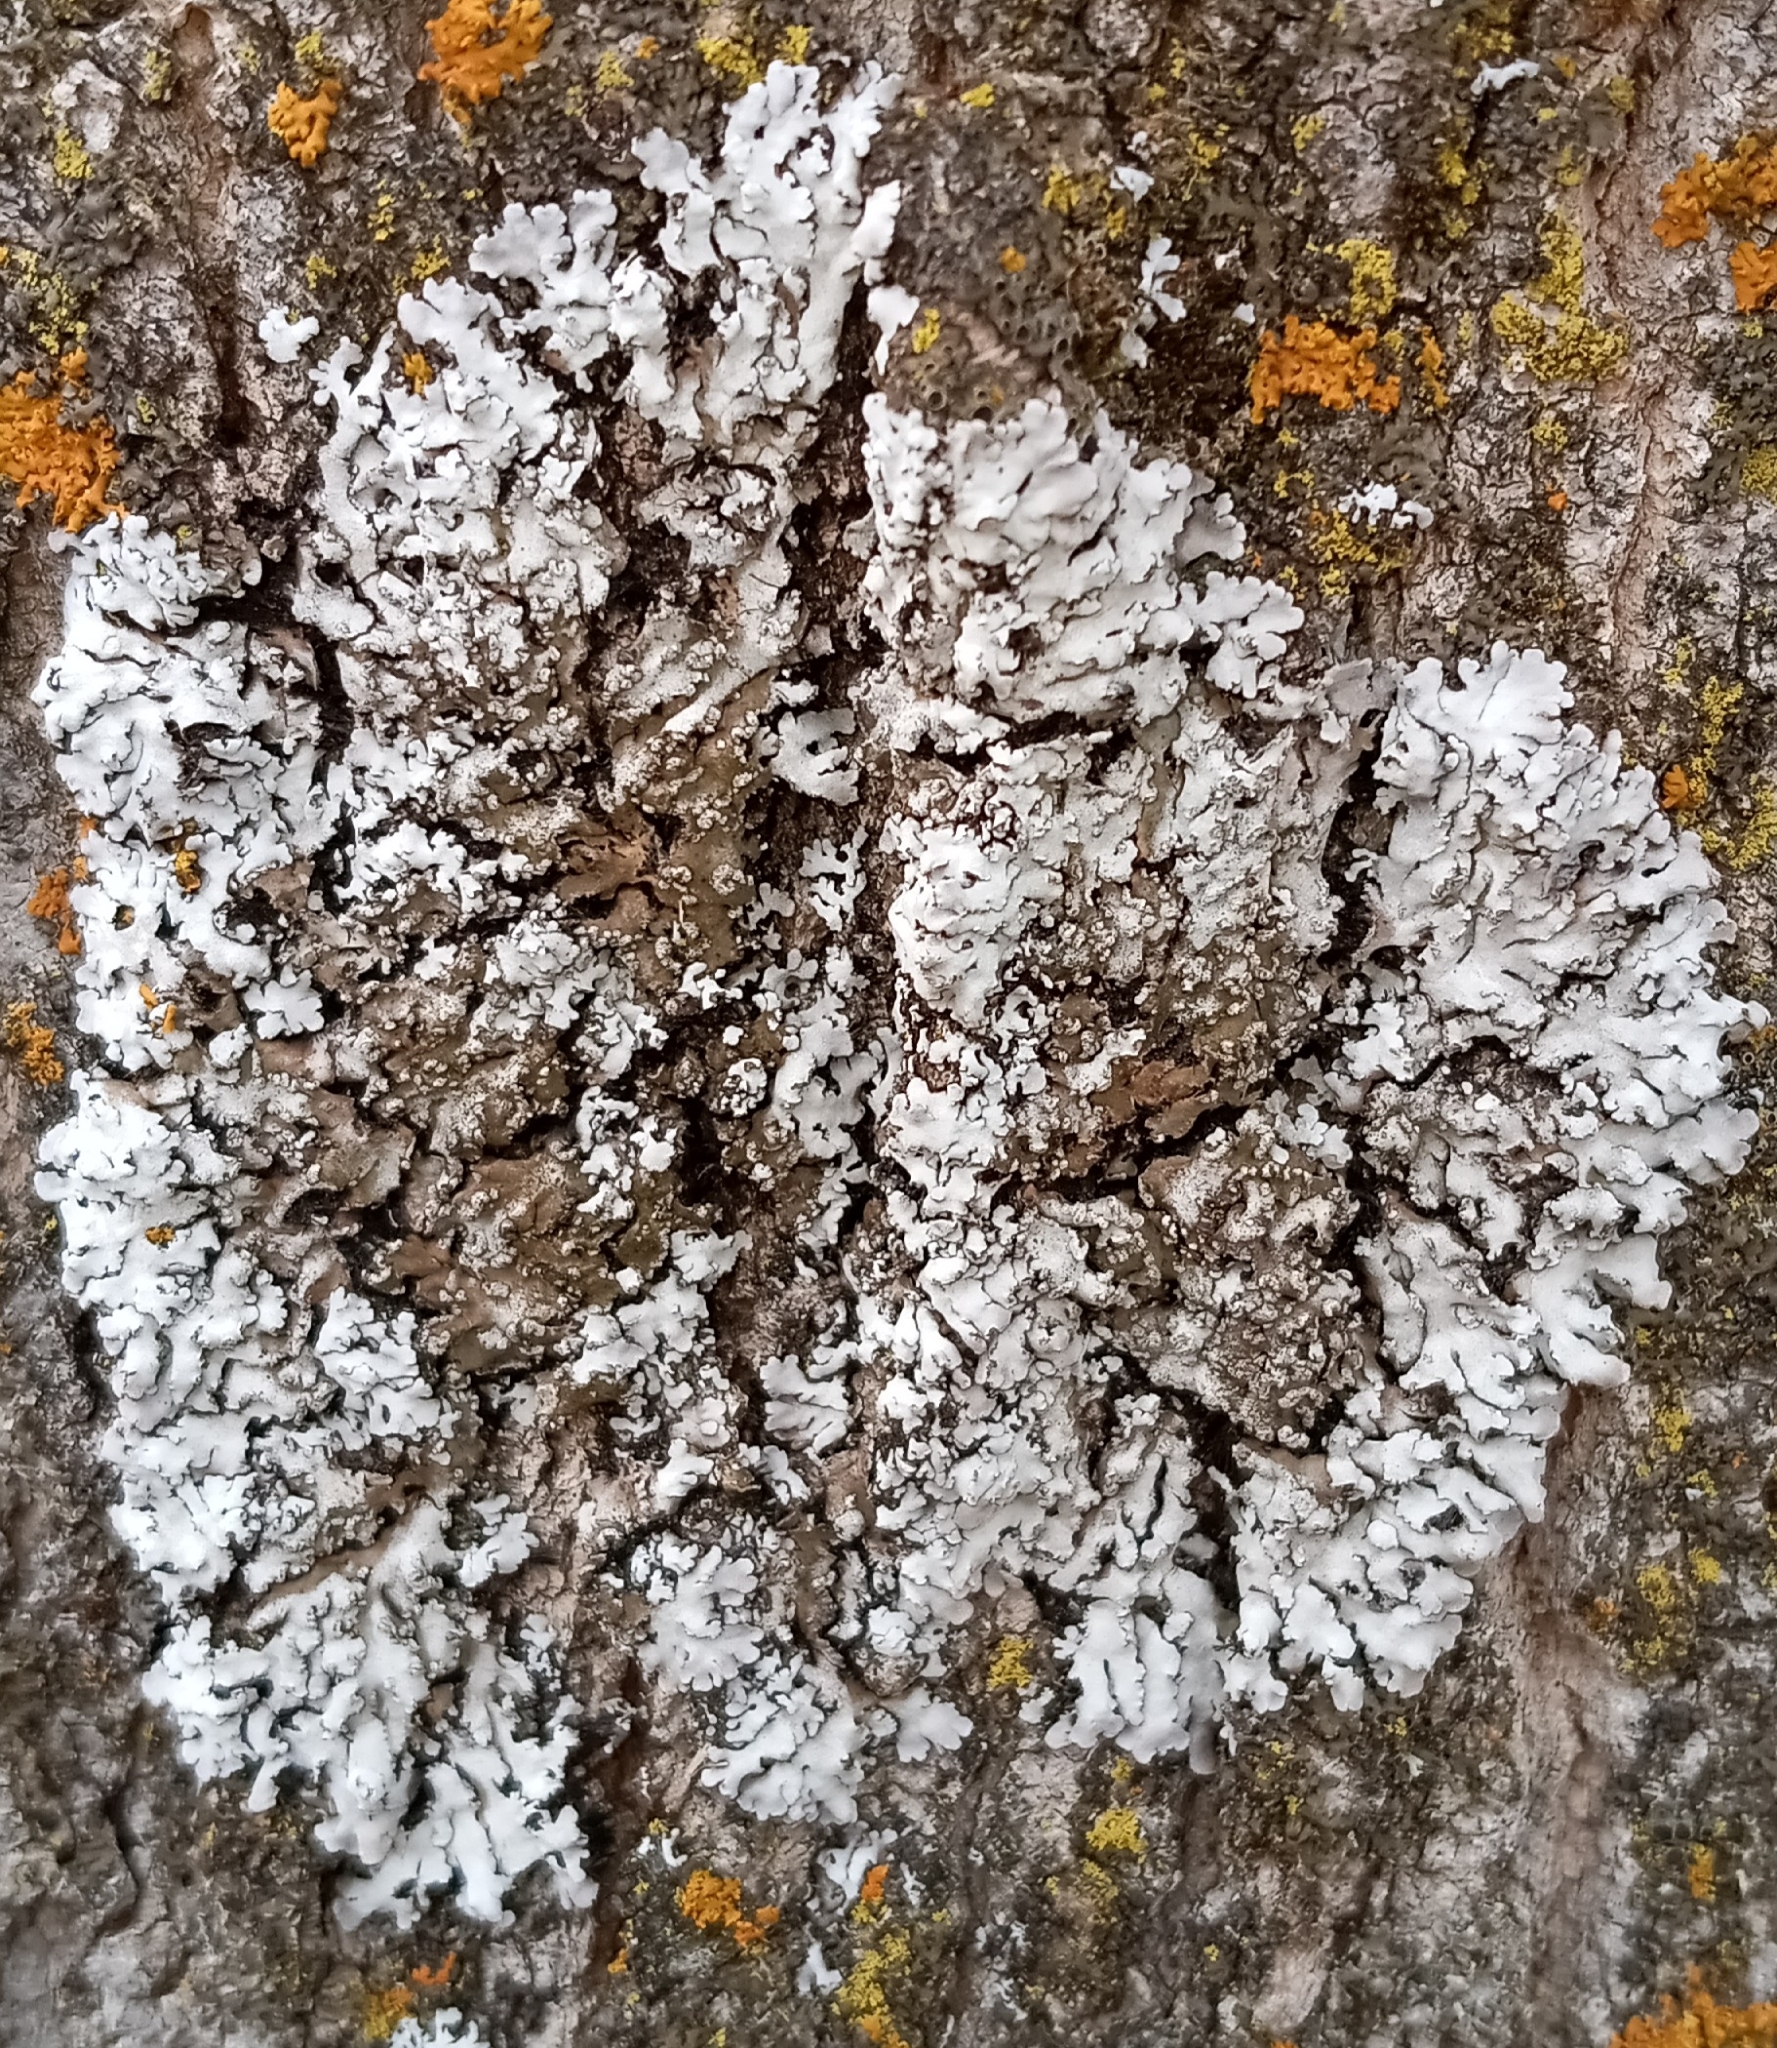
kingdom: Fungi
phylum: Ascomycota
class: Lecanoromycetes
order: Caliciales
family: Physciaceae
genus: Physconia
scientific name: Physconia detersa
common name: Bottlebrush frost lichen
